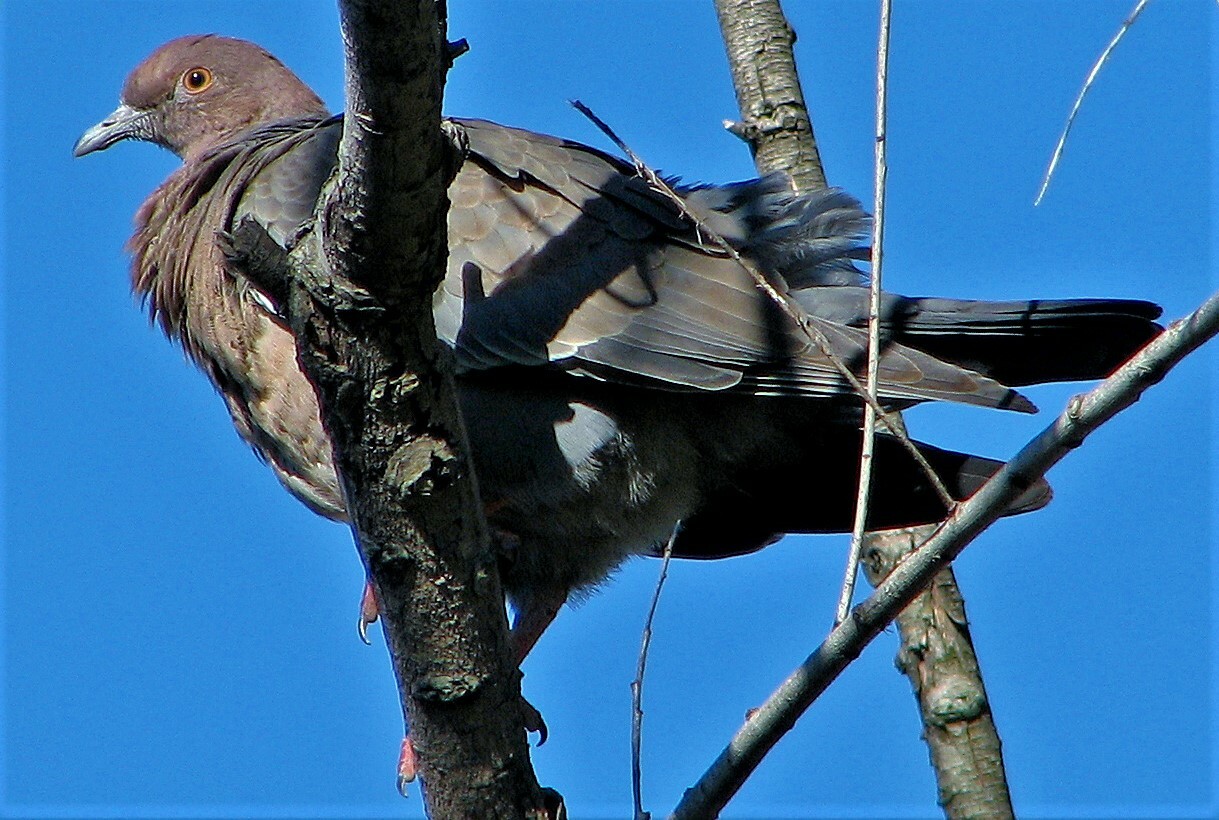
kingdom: Animalia
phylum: Chordata
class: Aves
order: Columbiformes
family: Columbidae
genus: Patagioenas
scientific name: Patagioenas picazuro
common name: Picazuro pigeon
